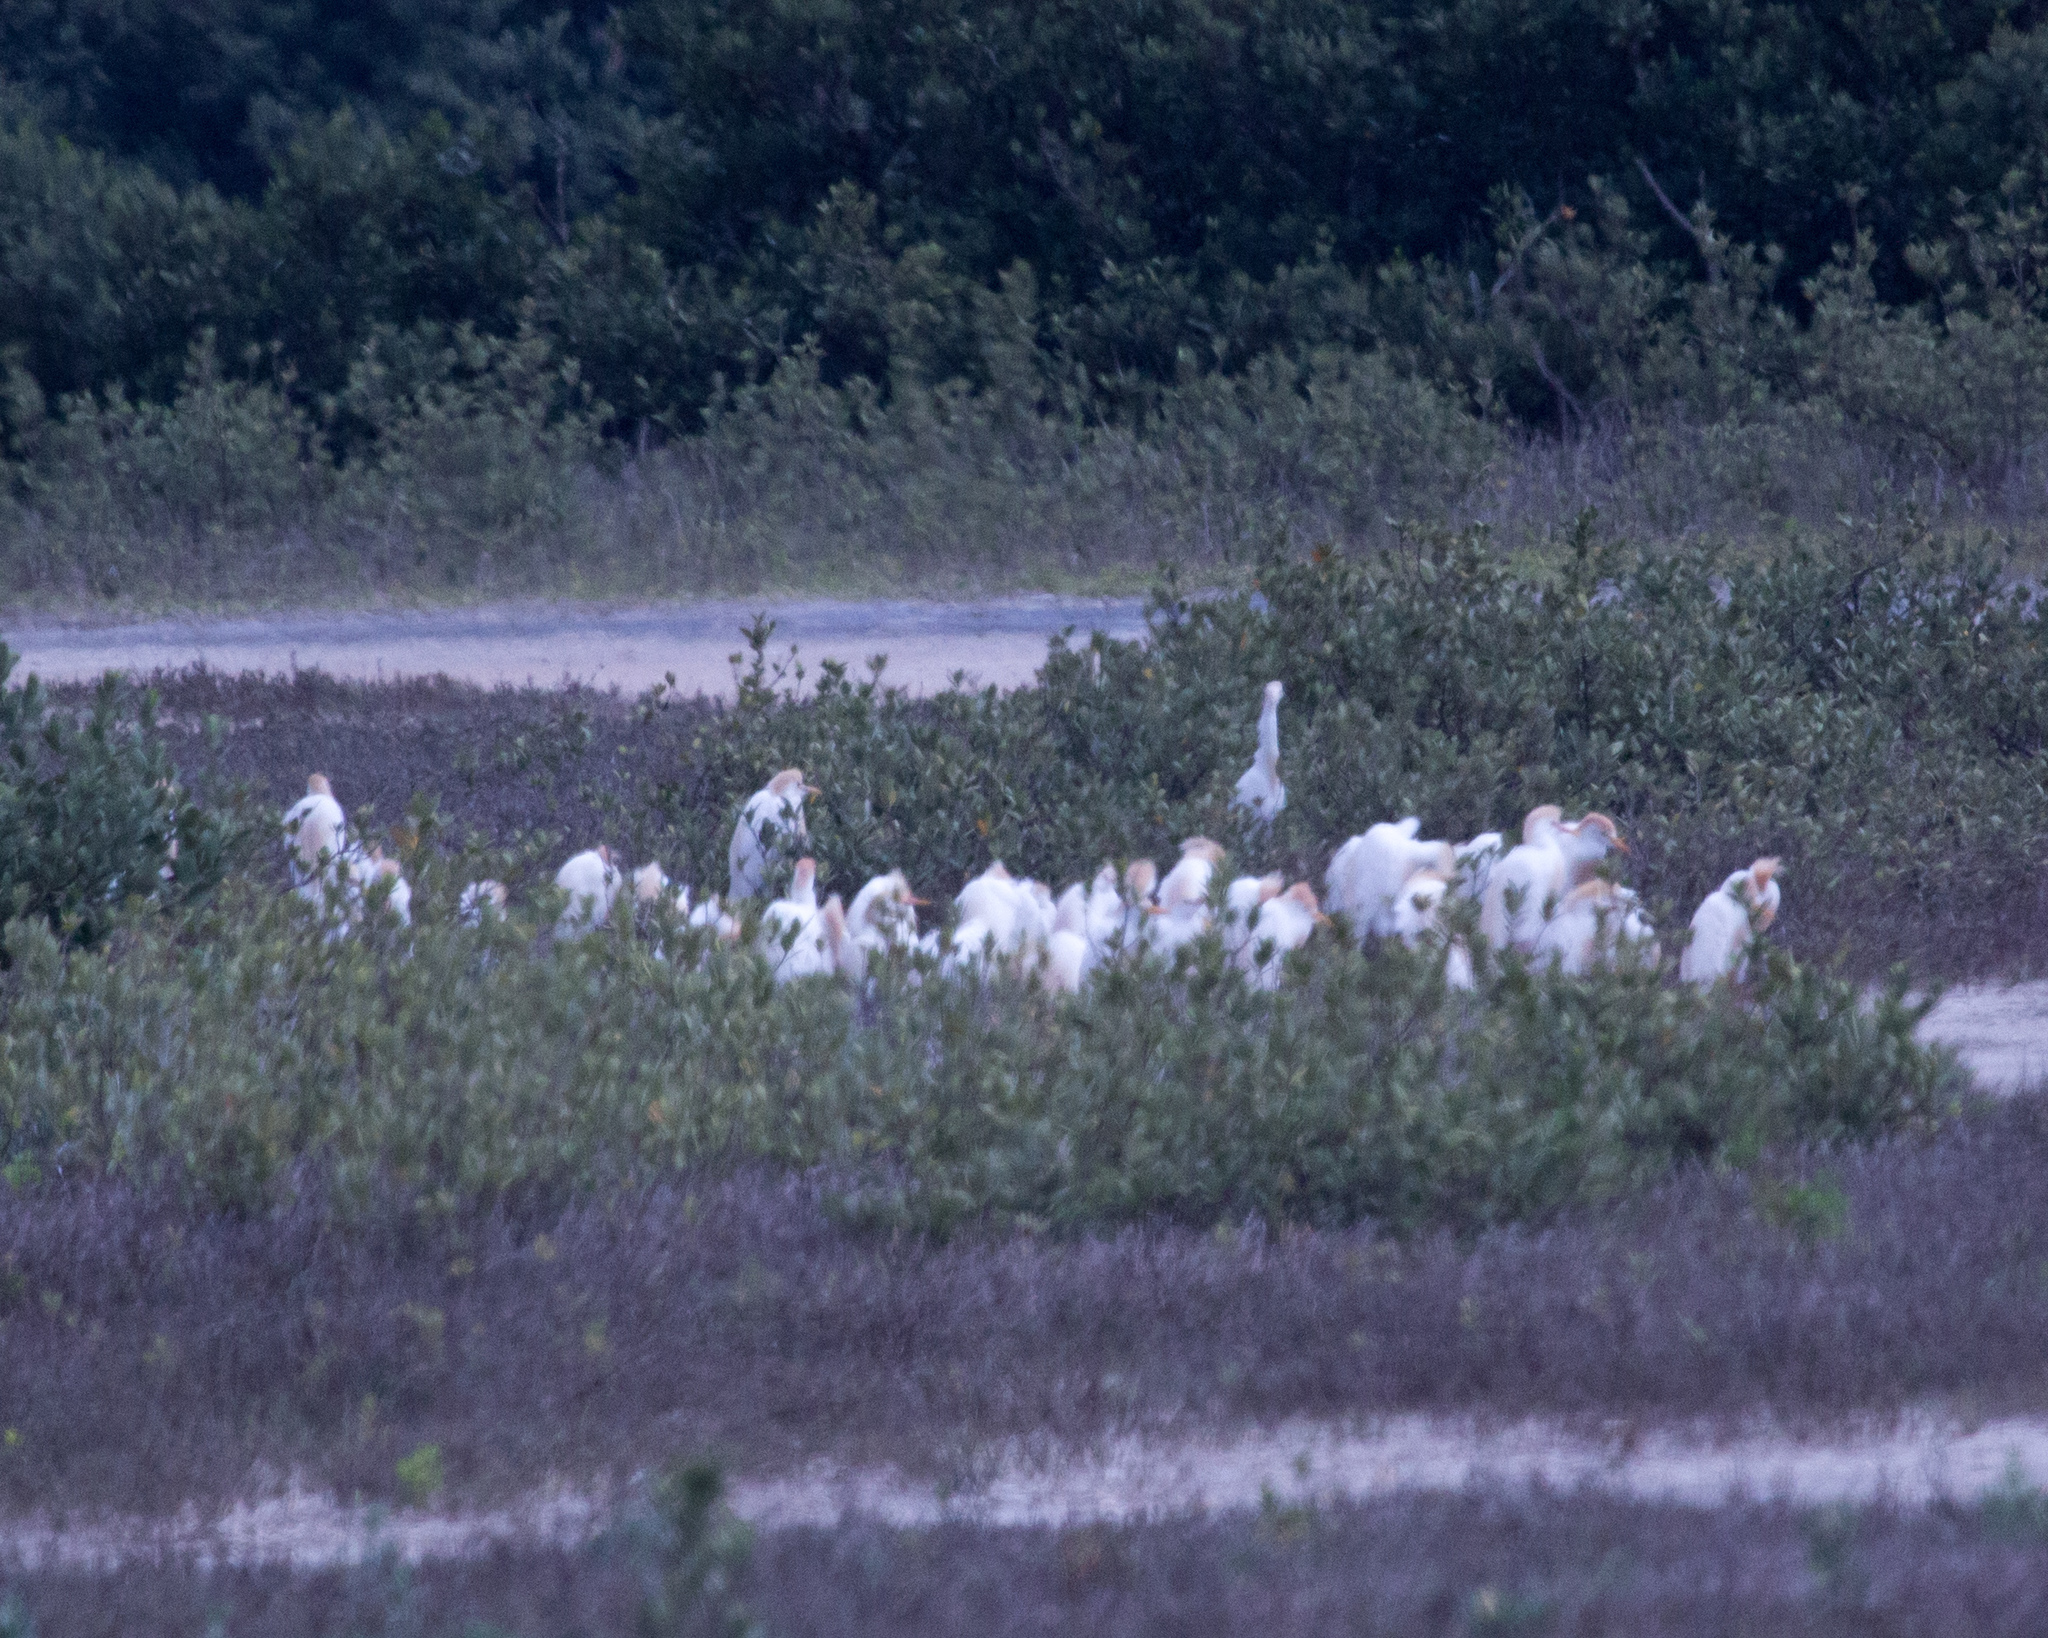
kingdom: Animalia
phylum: Chordata
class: Aves
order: Pelecaniformes
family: Ardeidae
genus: Bubulcus
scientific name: Bubulcus ibis
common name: Cattle egret
